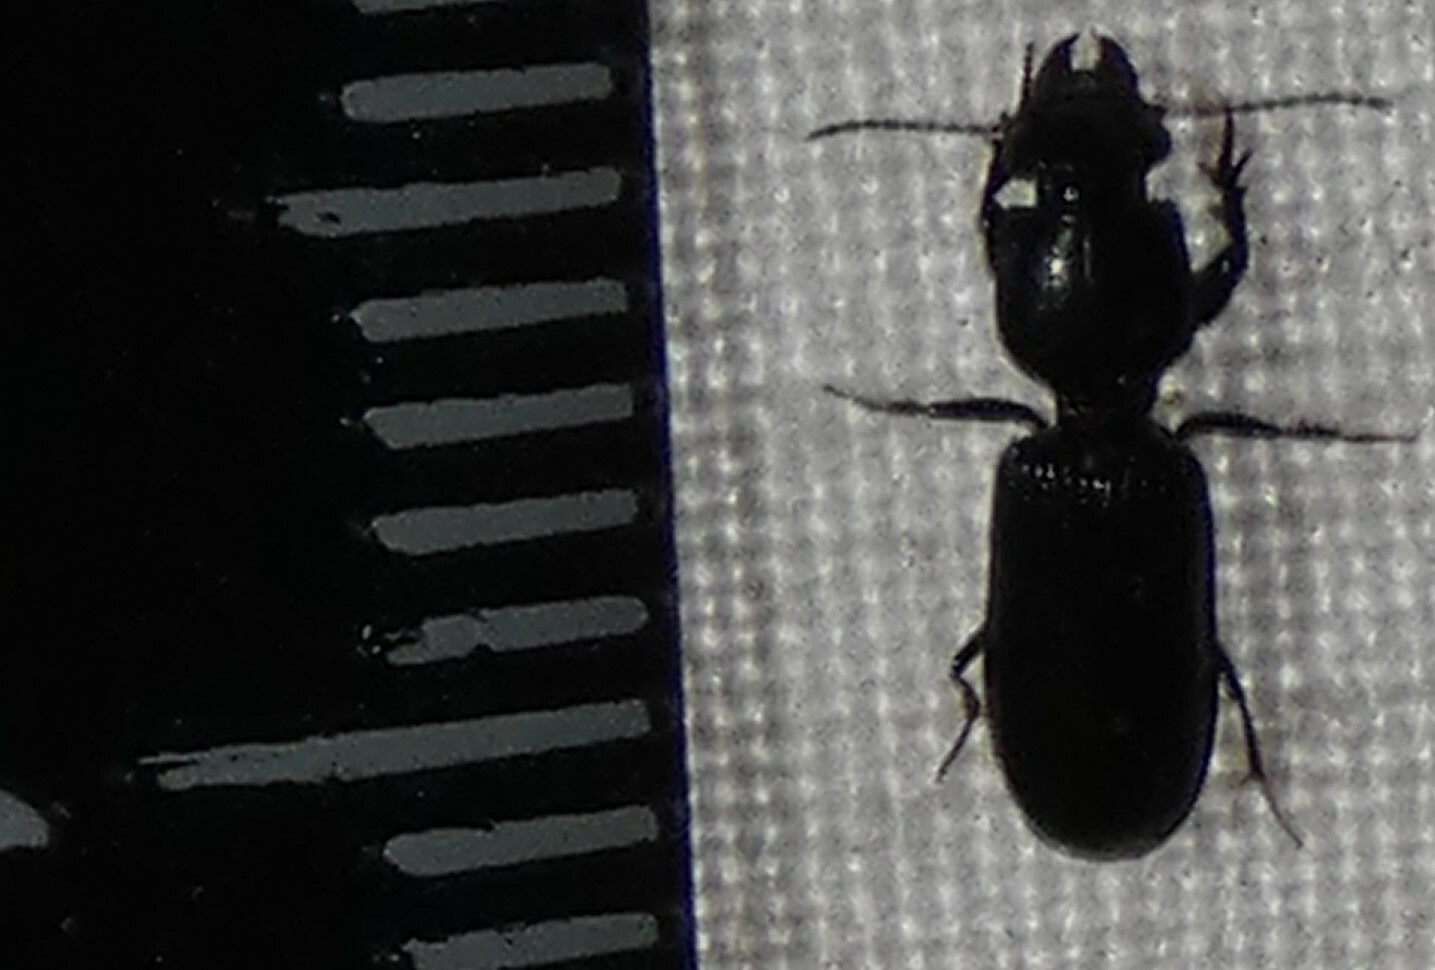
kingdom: Animalia
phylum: Arthropoda
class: Insecta
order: Coleoptera
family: Carabidae
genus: Semiclivina
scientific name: Semiclivina dentipes
